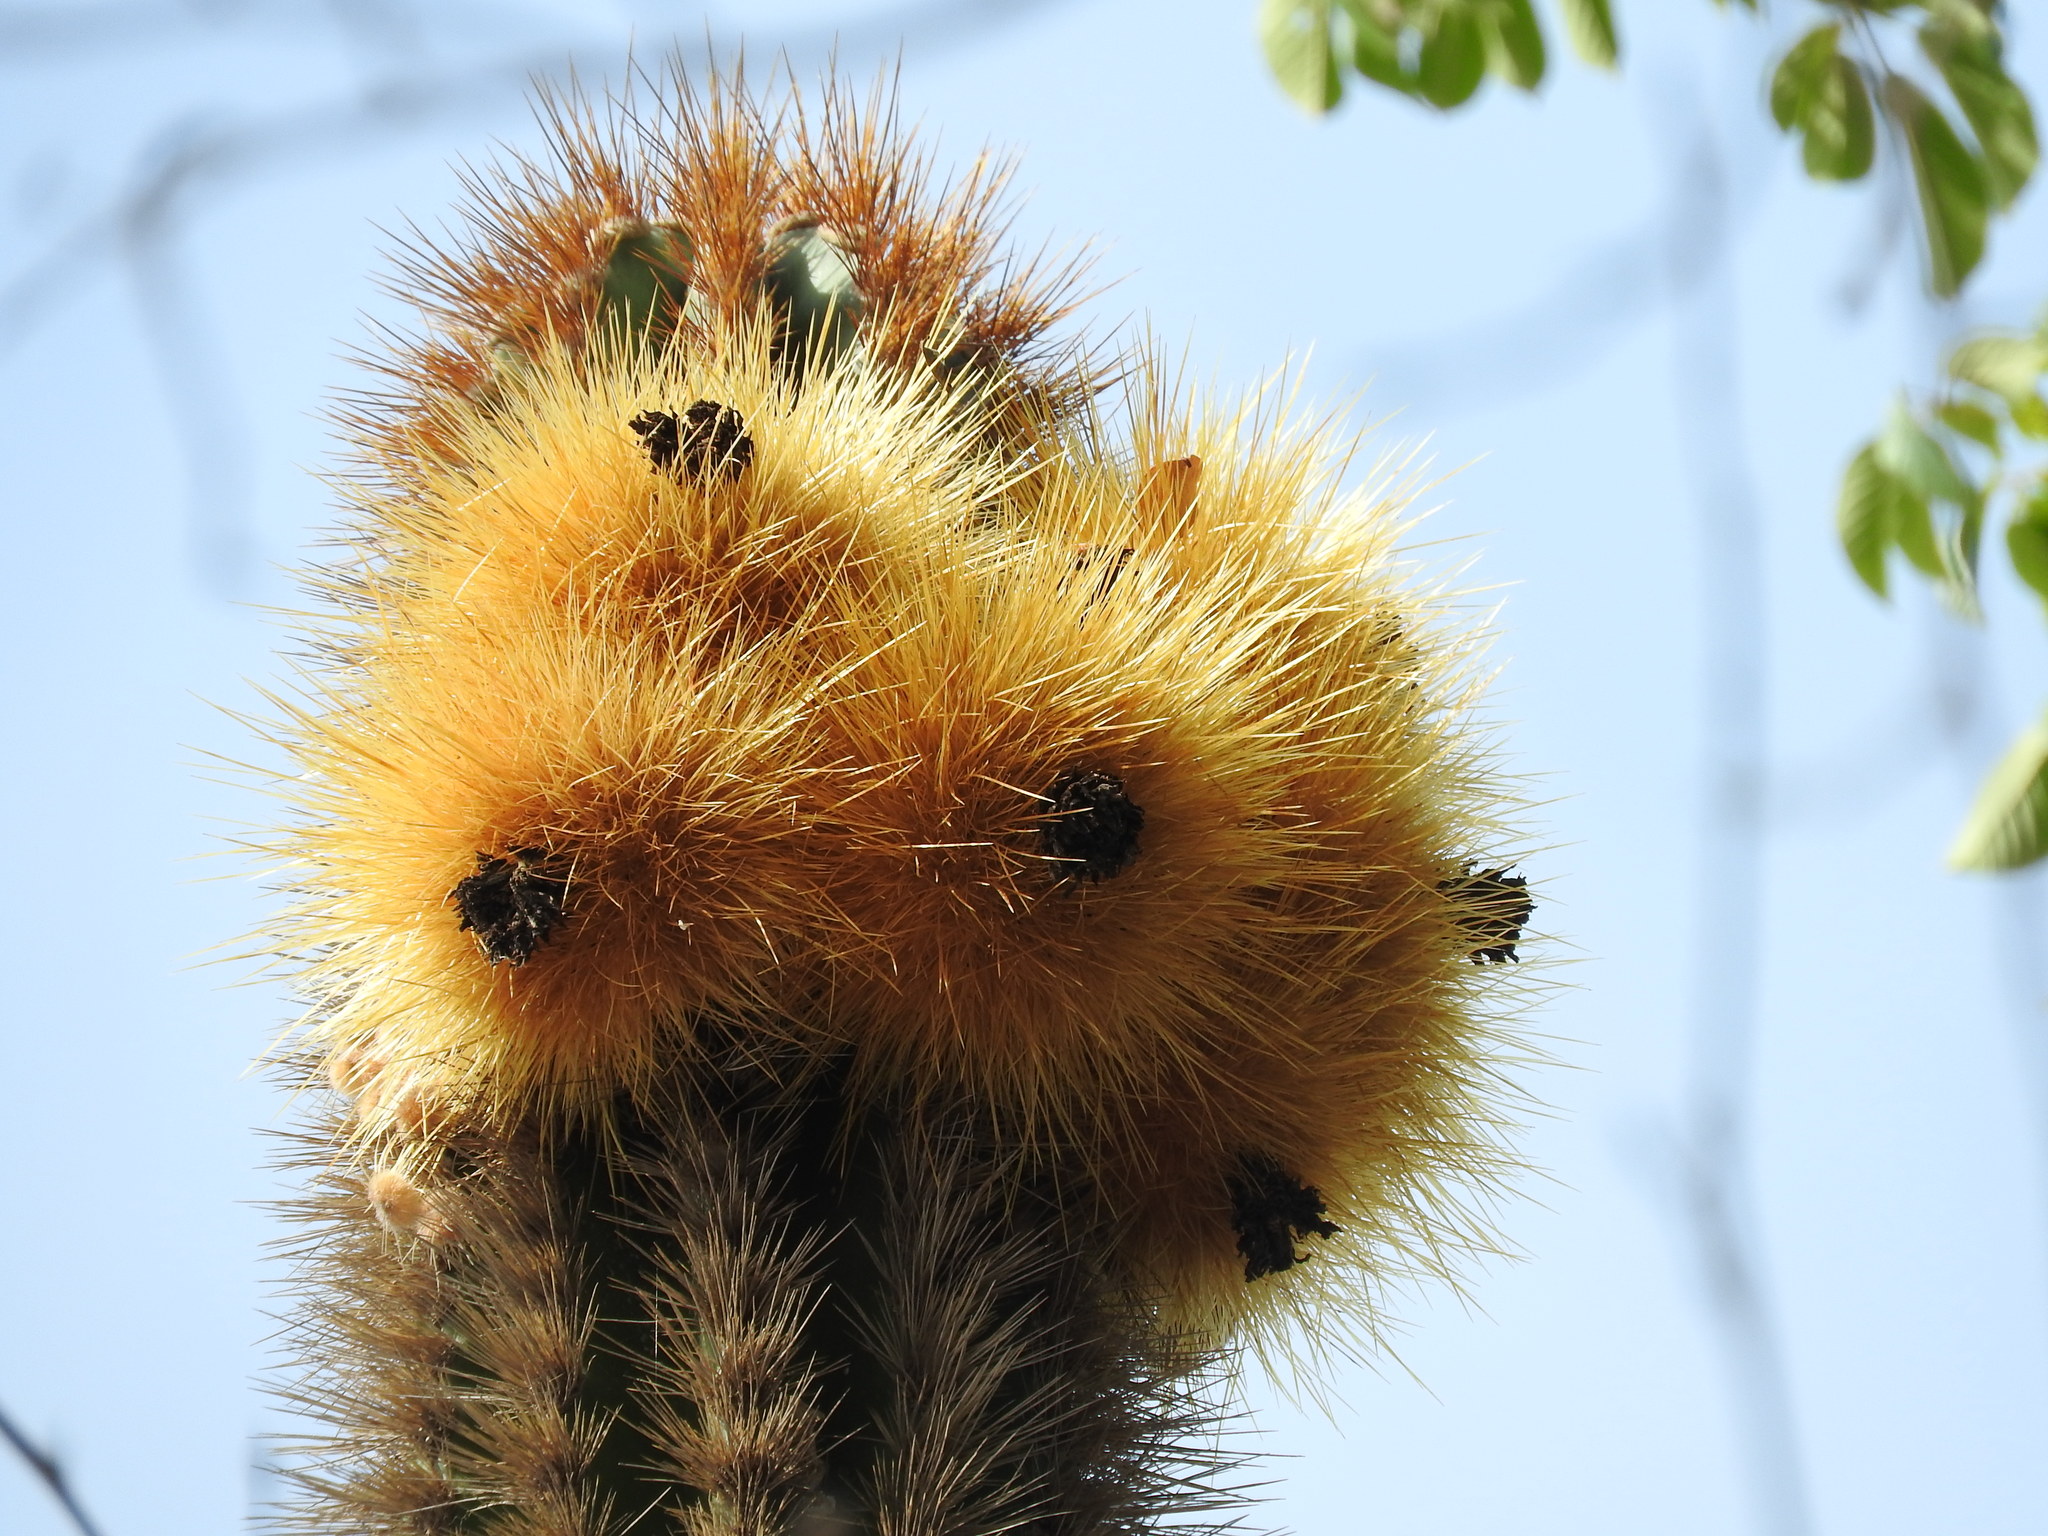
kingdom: Plantae
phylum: Tracheophyta
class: Magnoliopsida
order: Caryophyllales
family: Cactaceae
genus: Pachycereus
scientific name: Pachycereus pecten-aboriginum
